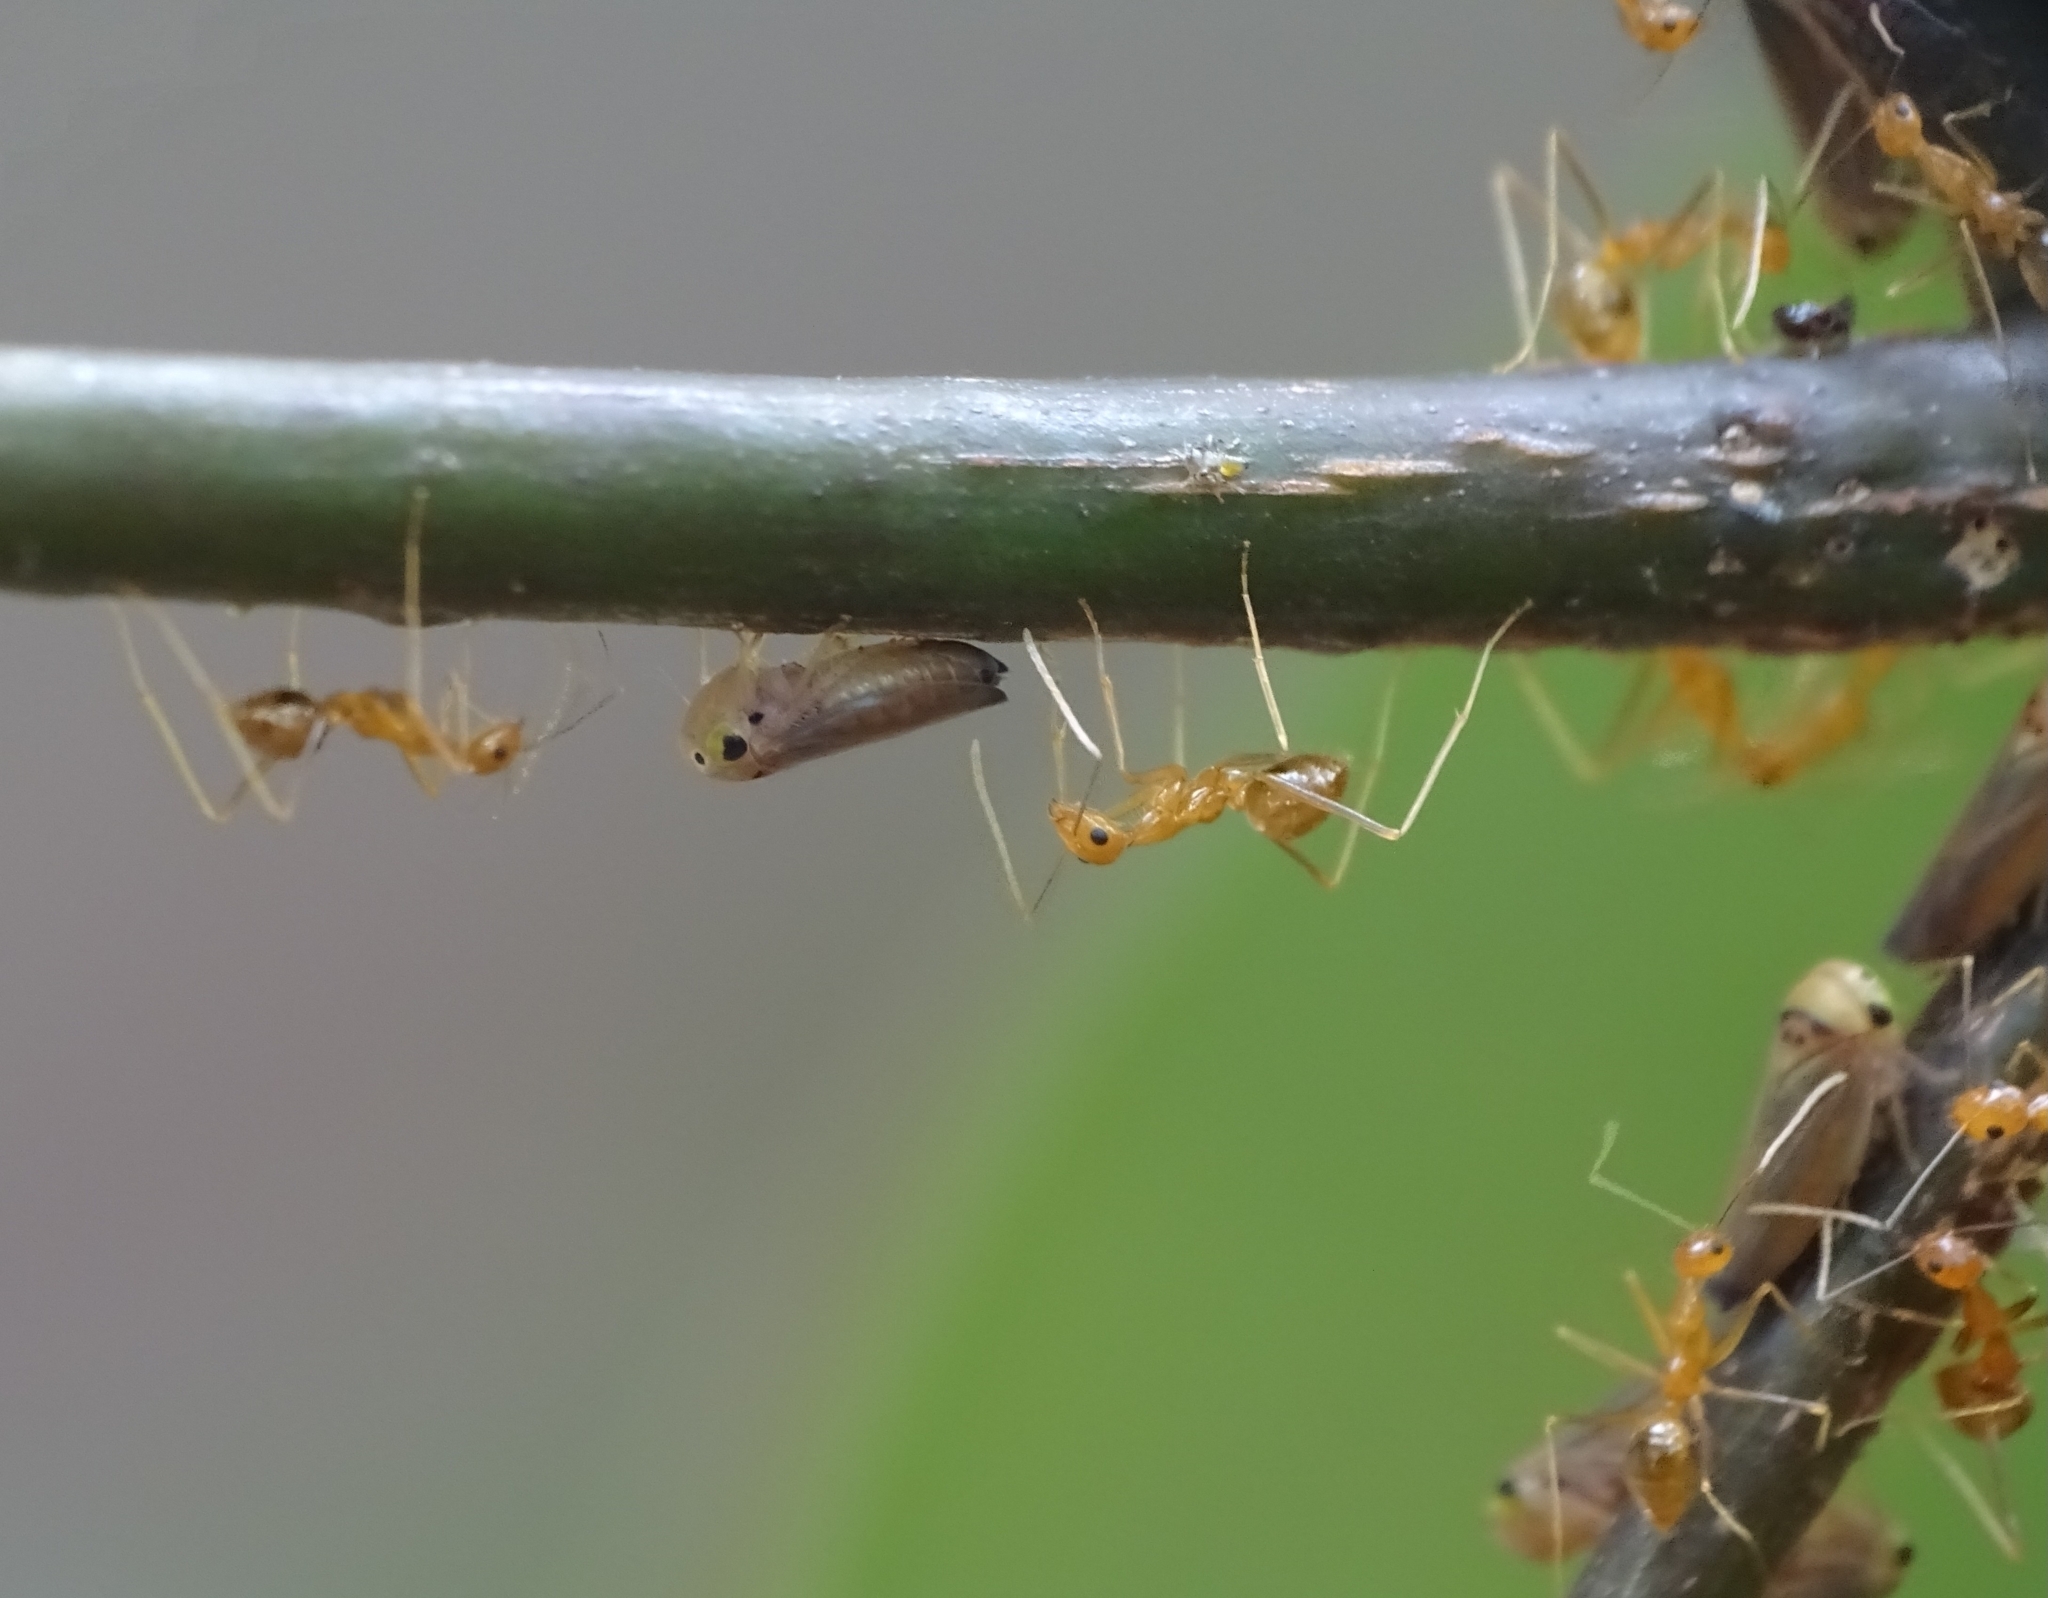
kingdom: Animalia
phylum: Arthropoda
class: Insecta
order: Hymenoptera
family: Formicidae
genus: Anoplolepis
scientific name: Anoplolepis gracilipes
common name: Ant
